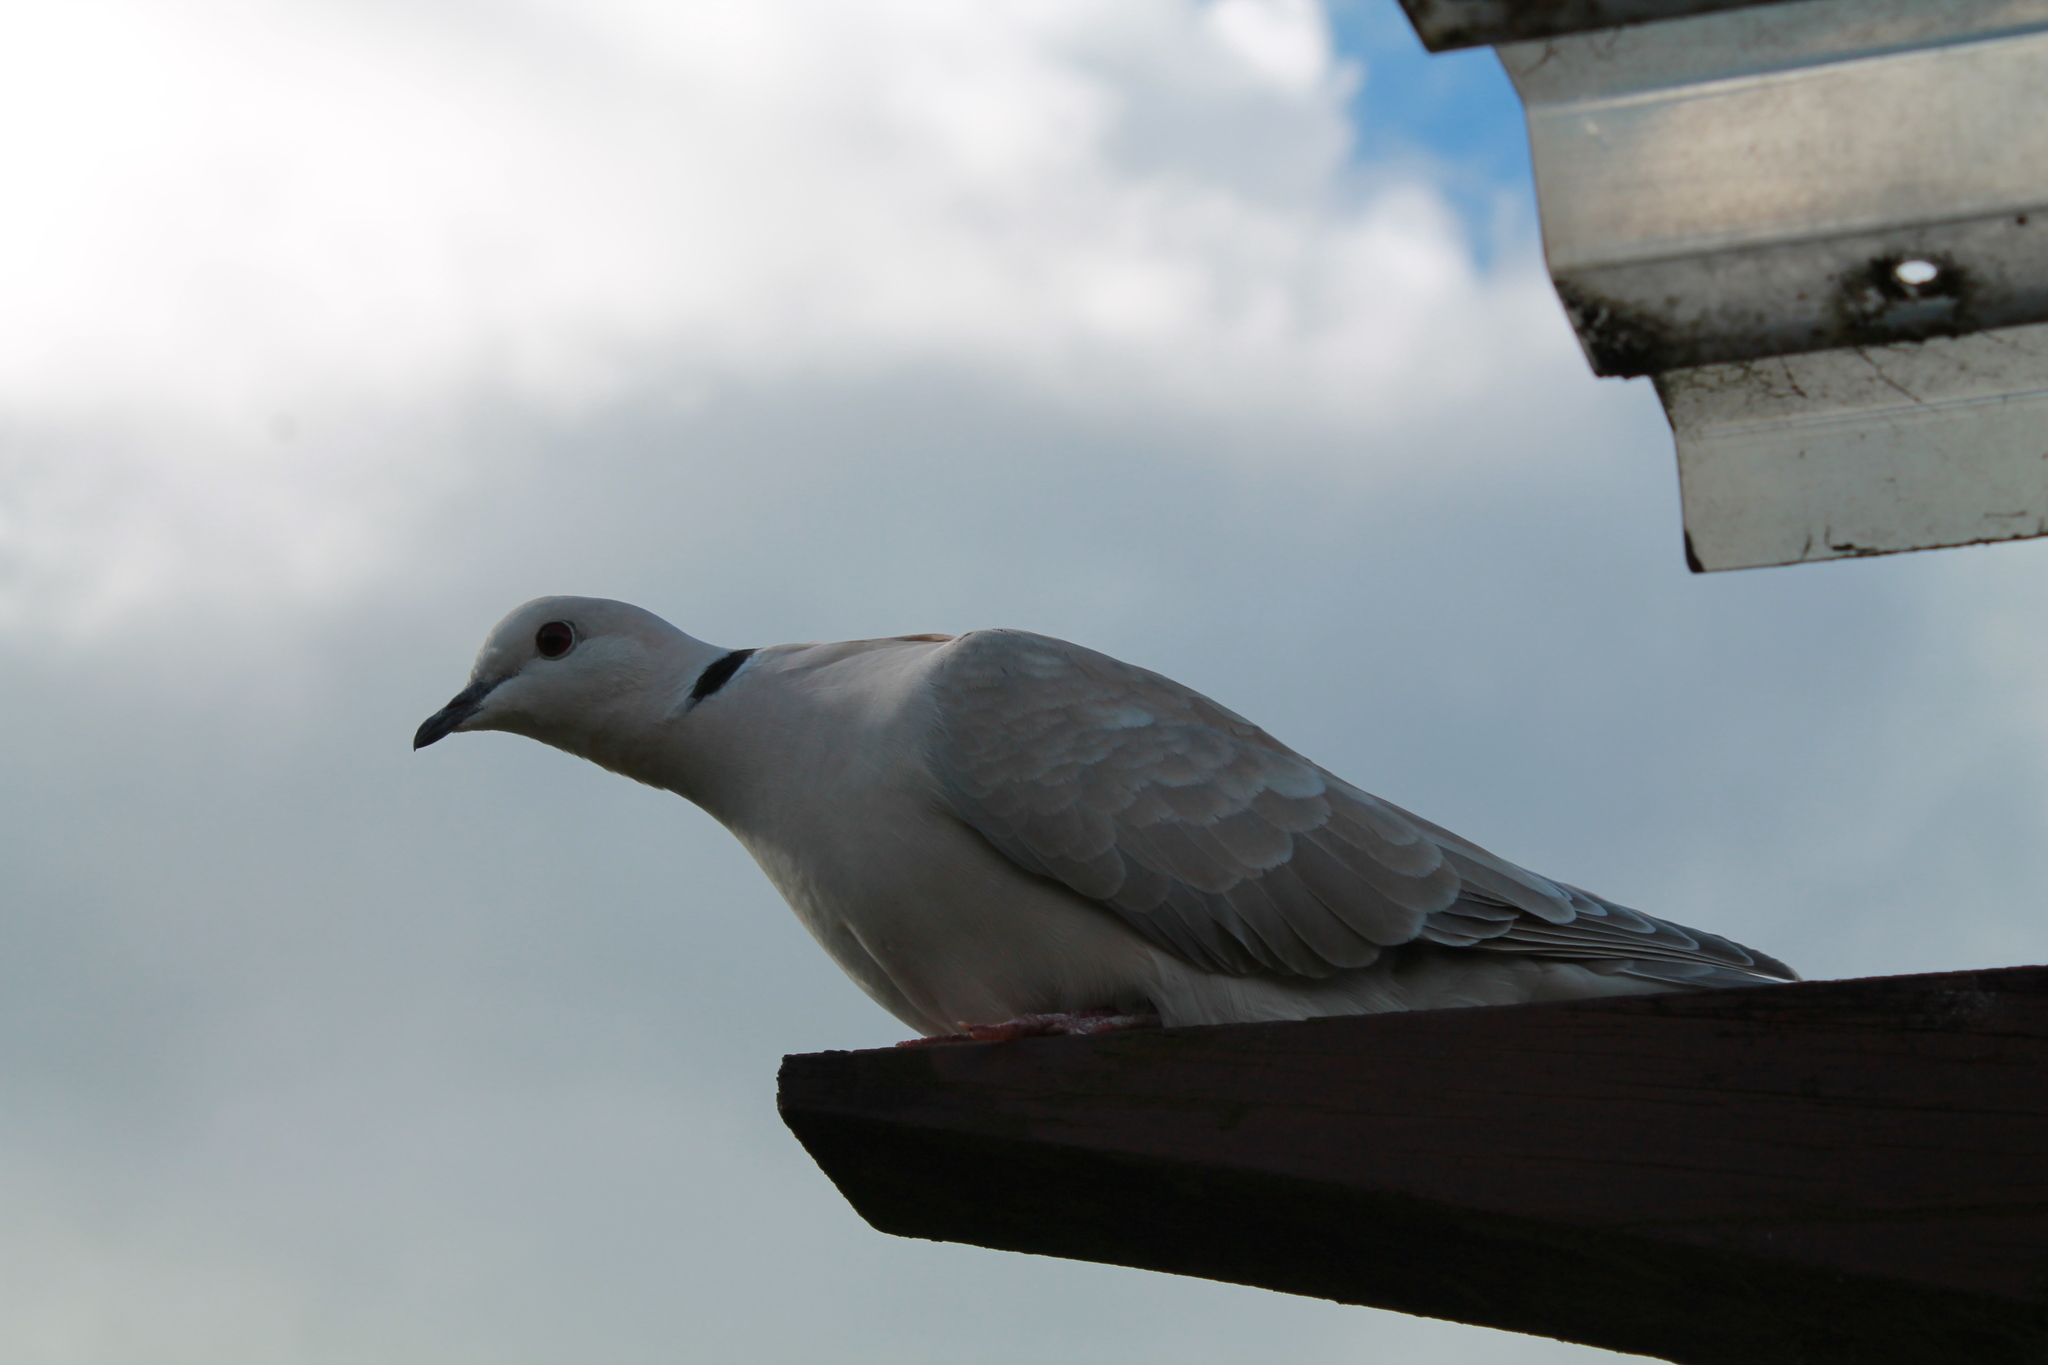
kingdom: Animalia
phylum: Chordata
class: Aves
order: Columbiformes
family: Columbidae
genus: Streptopelia
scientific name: Streptopelia roseogrisea
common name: African collared dove
